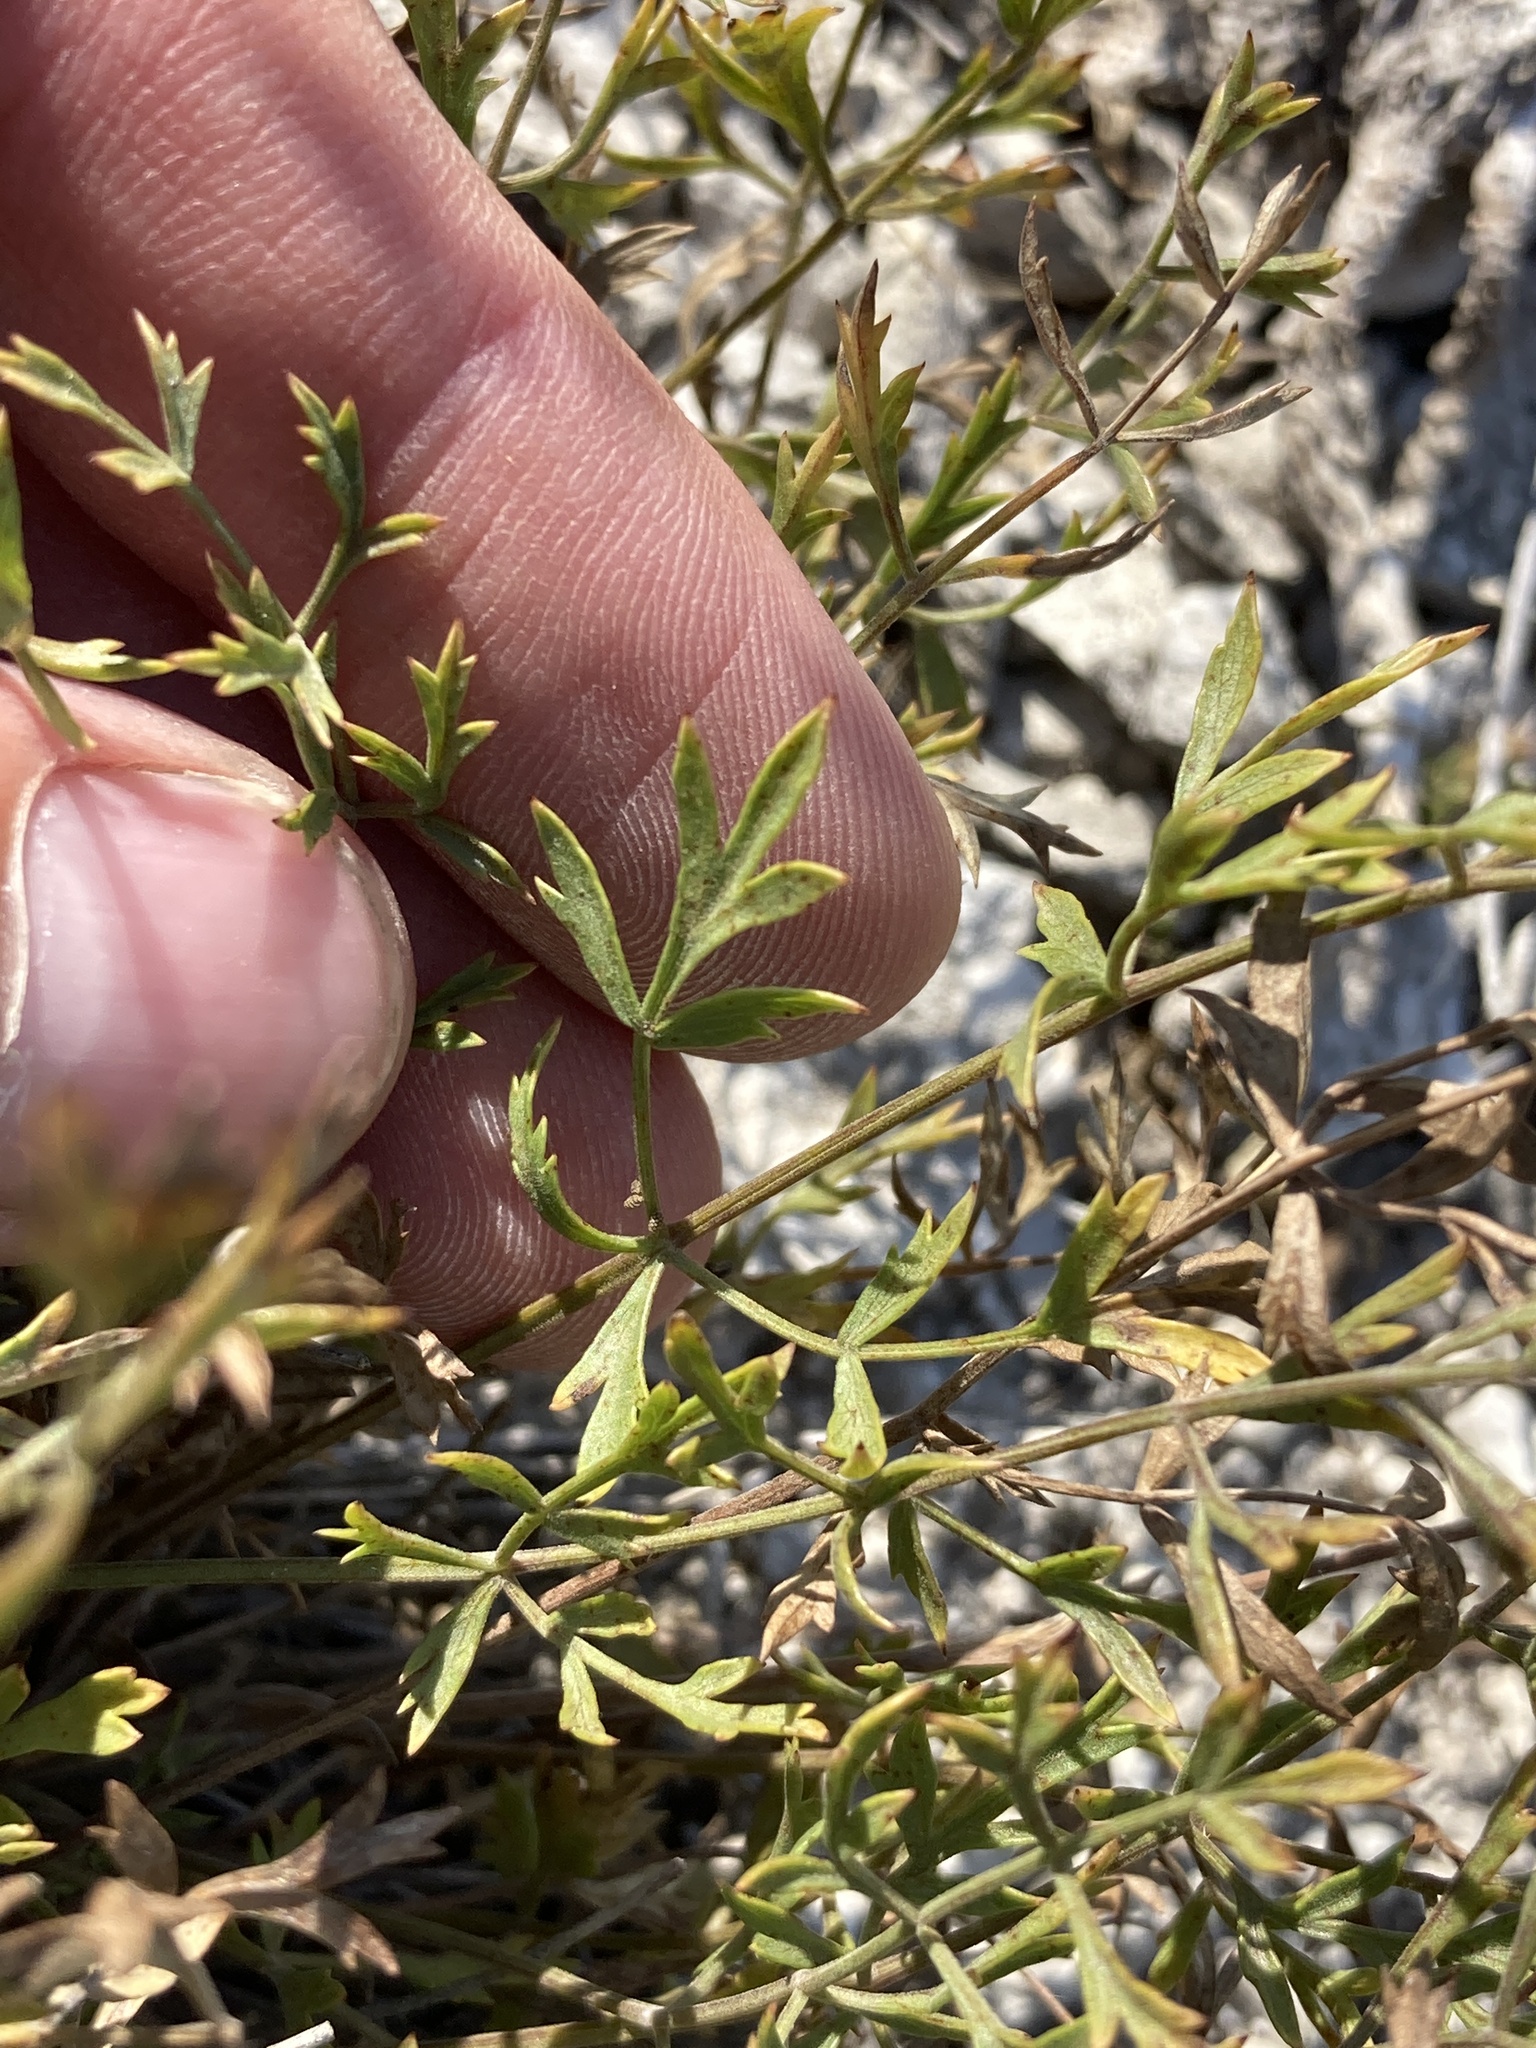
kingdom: Plantae
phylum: Tracheophyta
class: Magnoliopsida
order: Apiales
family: Apiaceae
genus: Pimpinella
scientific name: Pimpinella tragium
